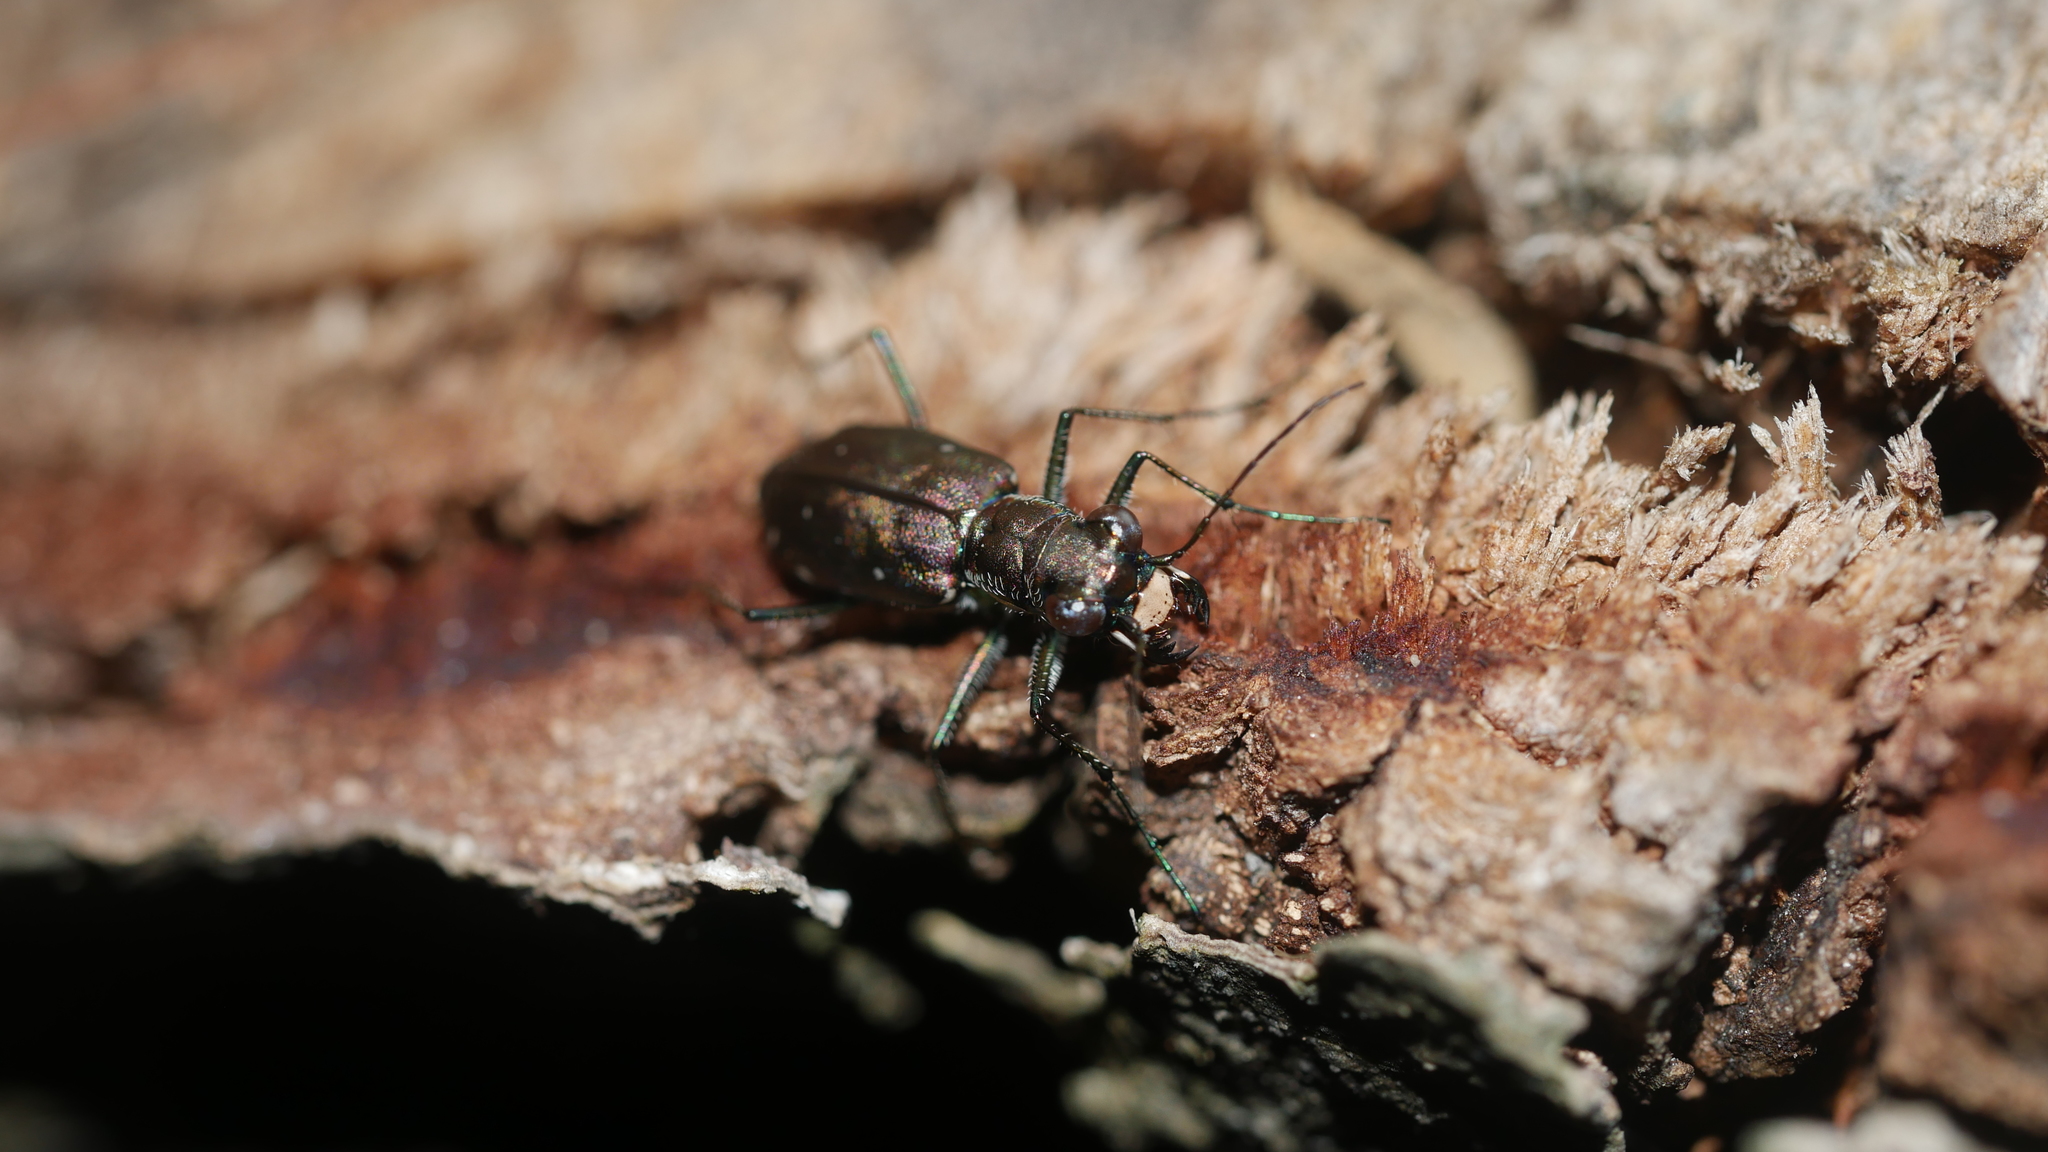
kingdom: Animalia
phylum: Arthropoda
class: Insecta
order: Coleoptera
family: Carabidae
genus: Cicindela
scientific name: Cicindela punctulata
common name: Punctured tiger beetle
